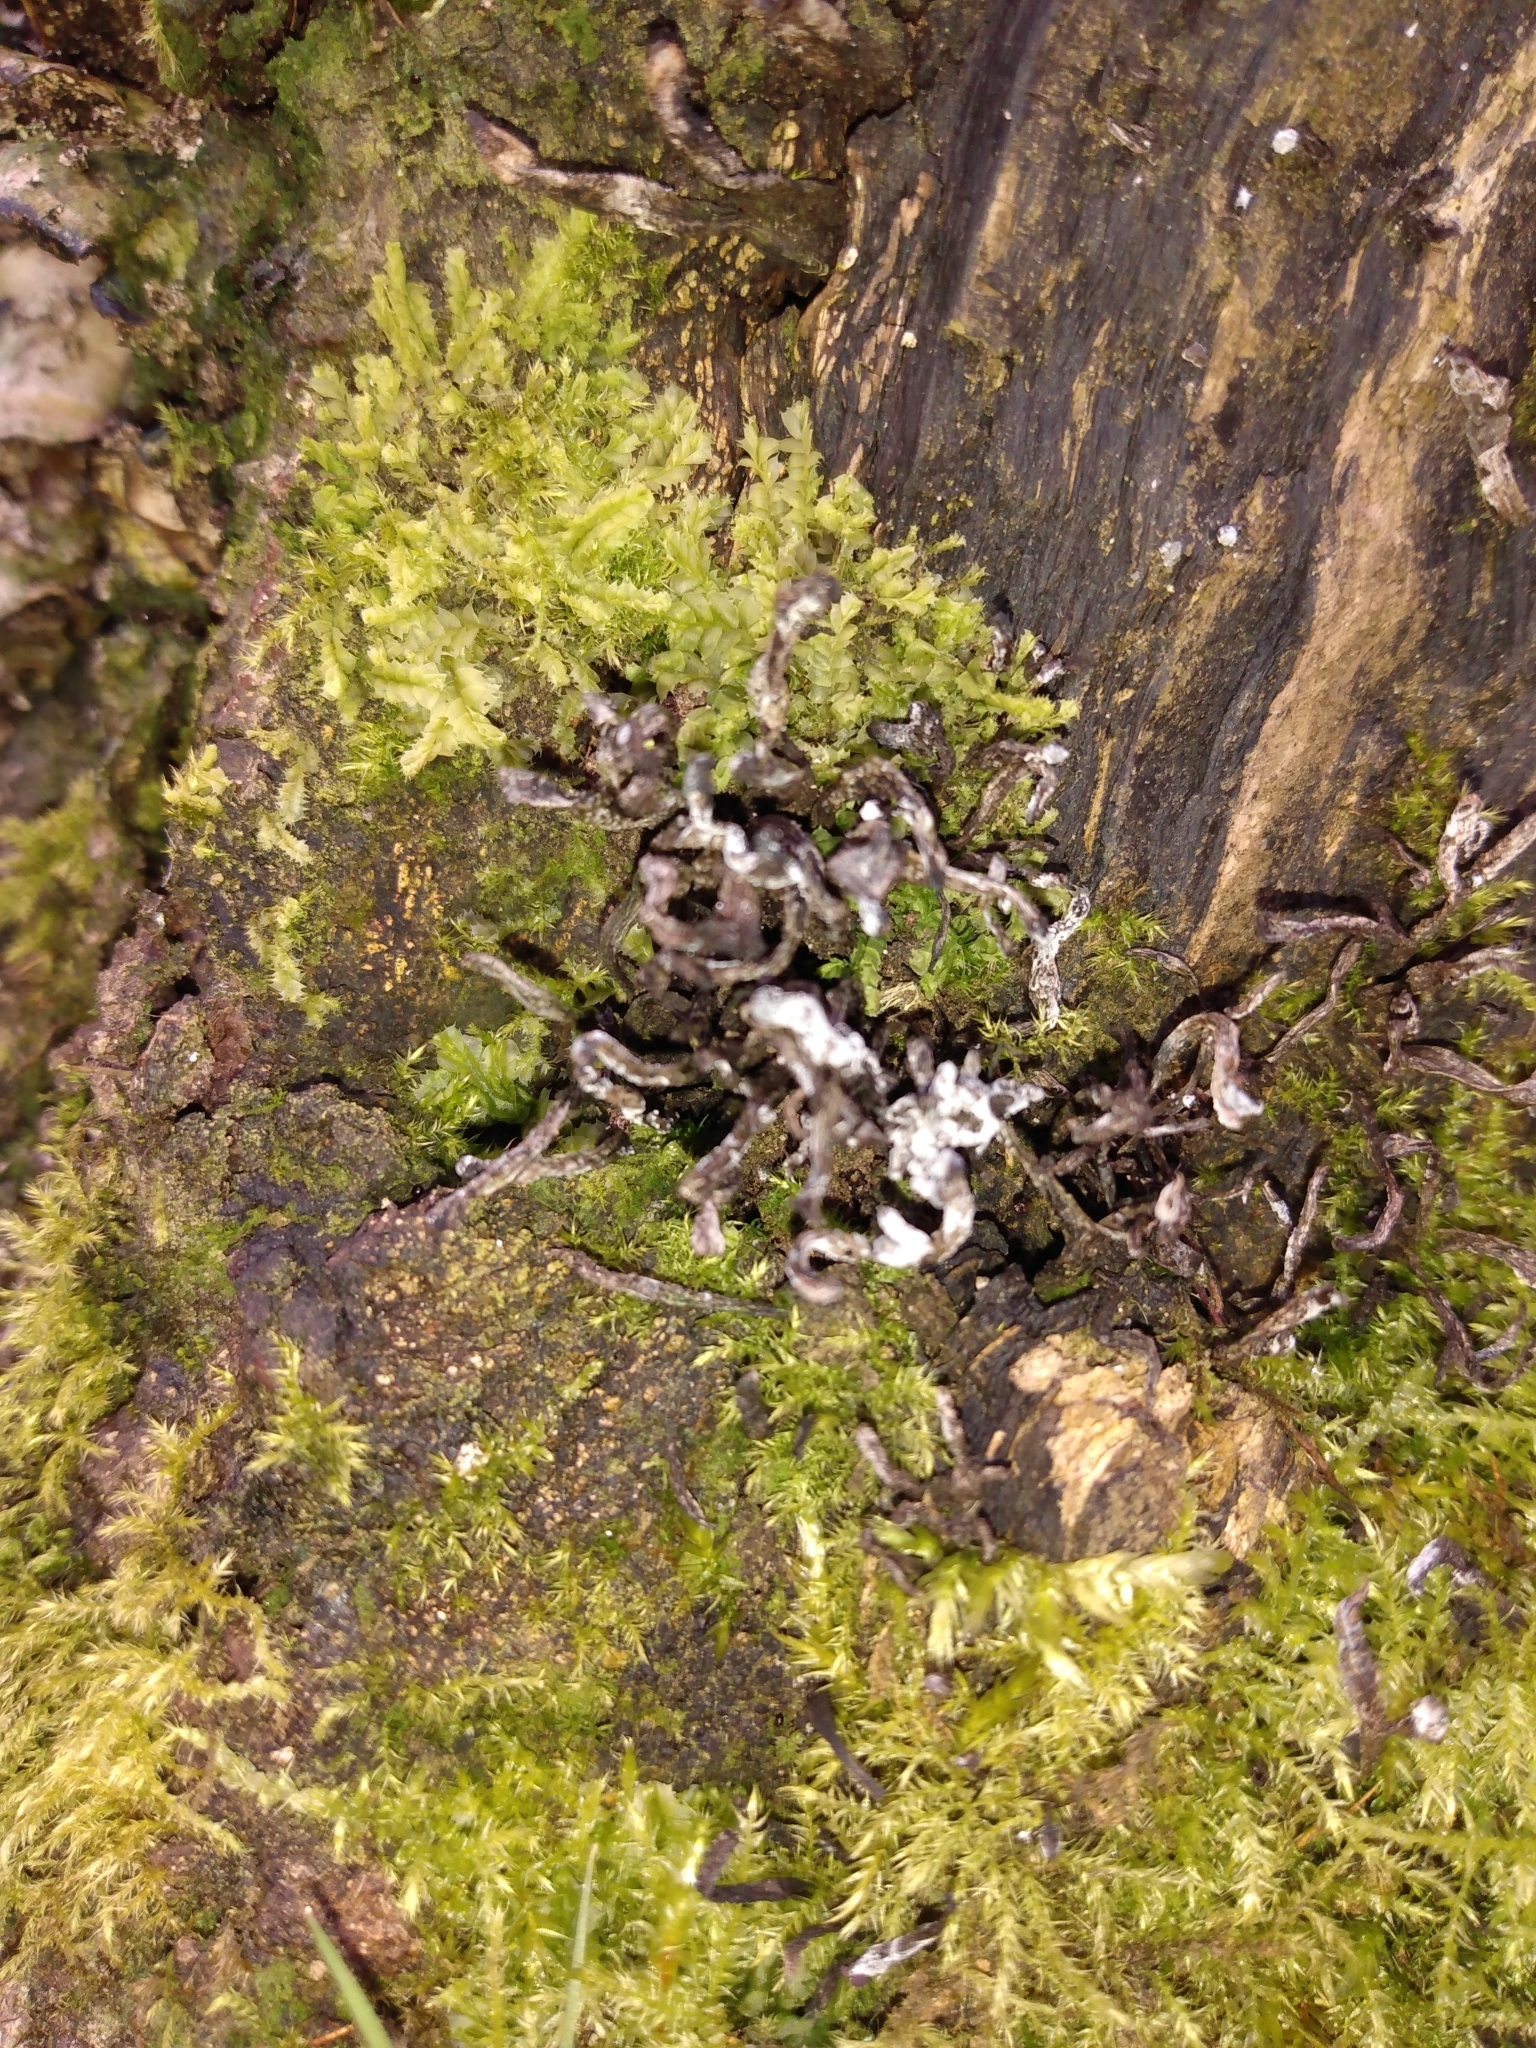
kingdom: Fungi
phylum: Ascomycota
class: Sordariomycetes
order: Xylariales
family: Xylariaceae
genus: Xylaria
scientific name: Xylaria hypoxylon
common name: Candle-snuff fungus
